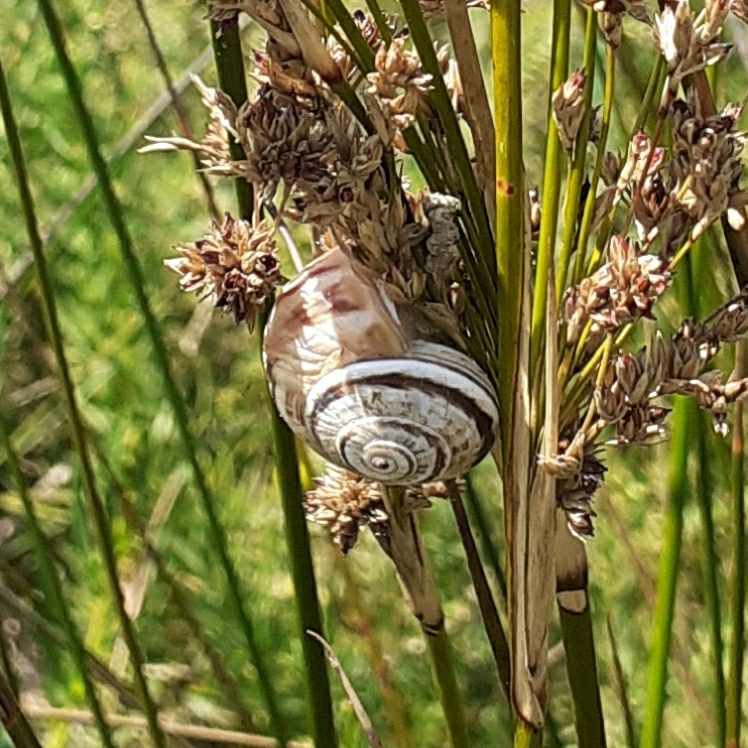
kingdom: Animalia
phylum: Mollusca
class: Gastropoda
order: Stylommatophora
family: Helicidae
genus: Theba
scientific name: Theba pisana
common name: White snail
